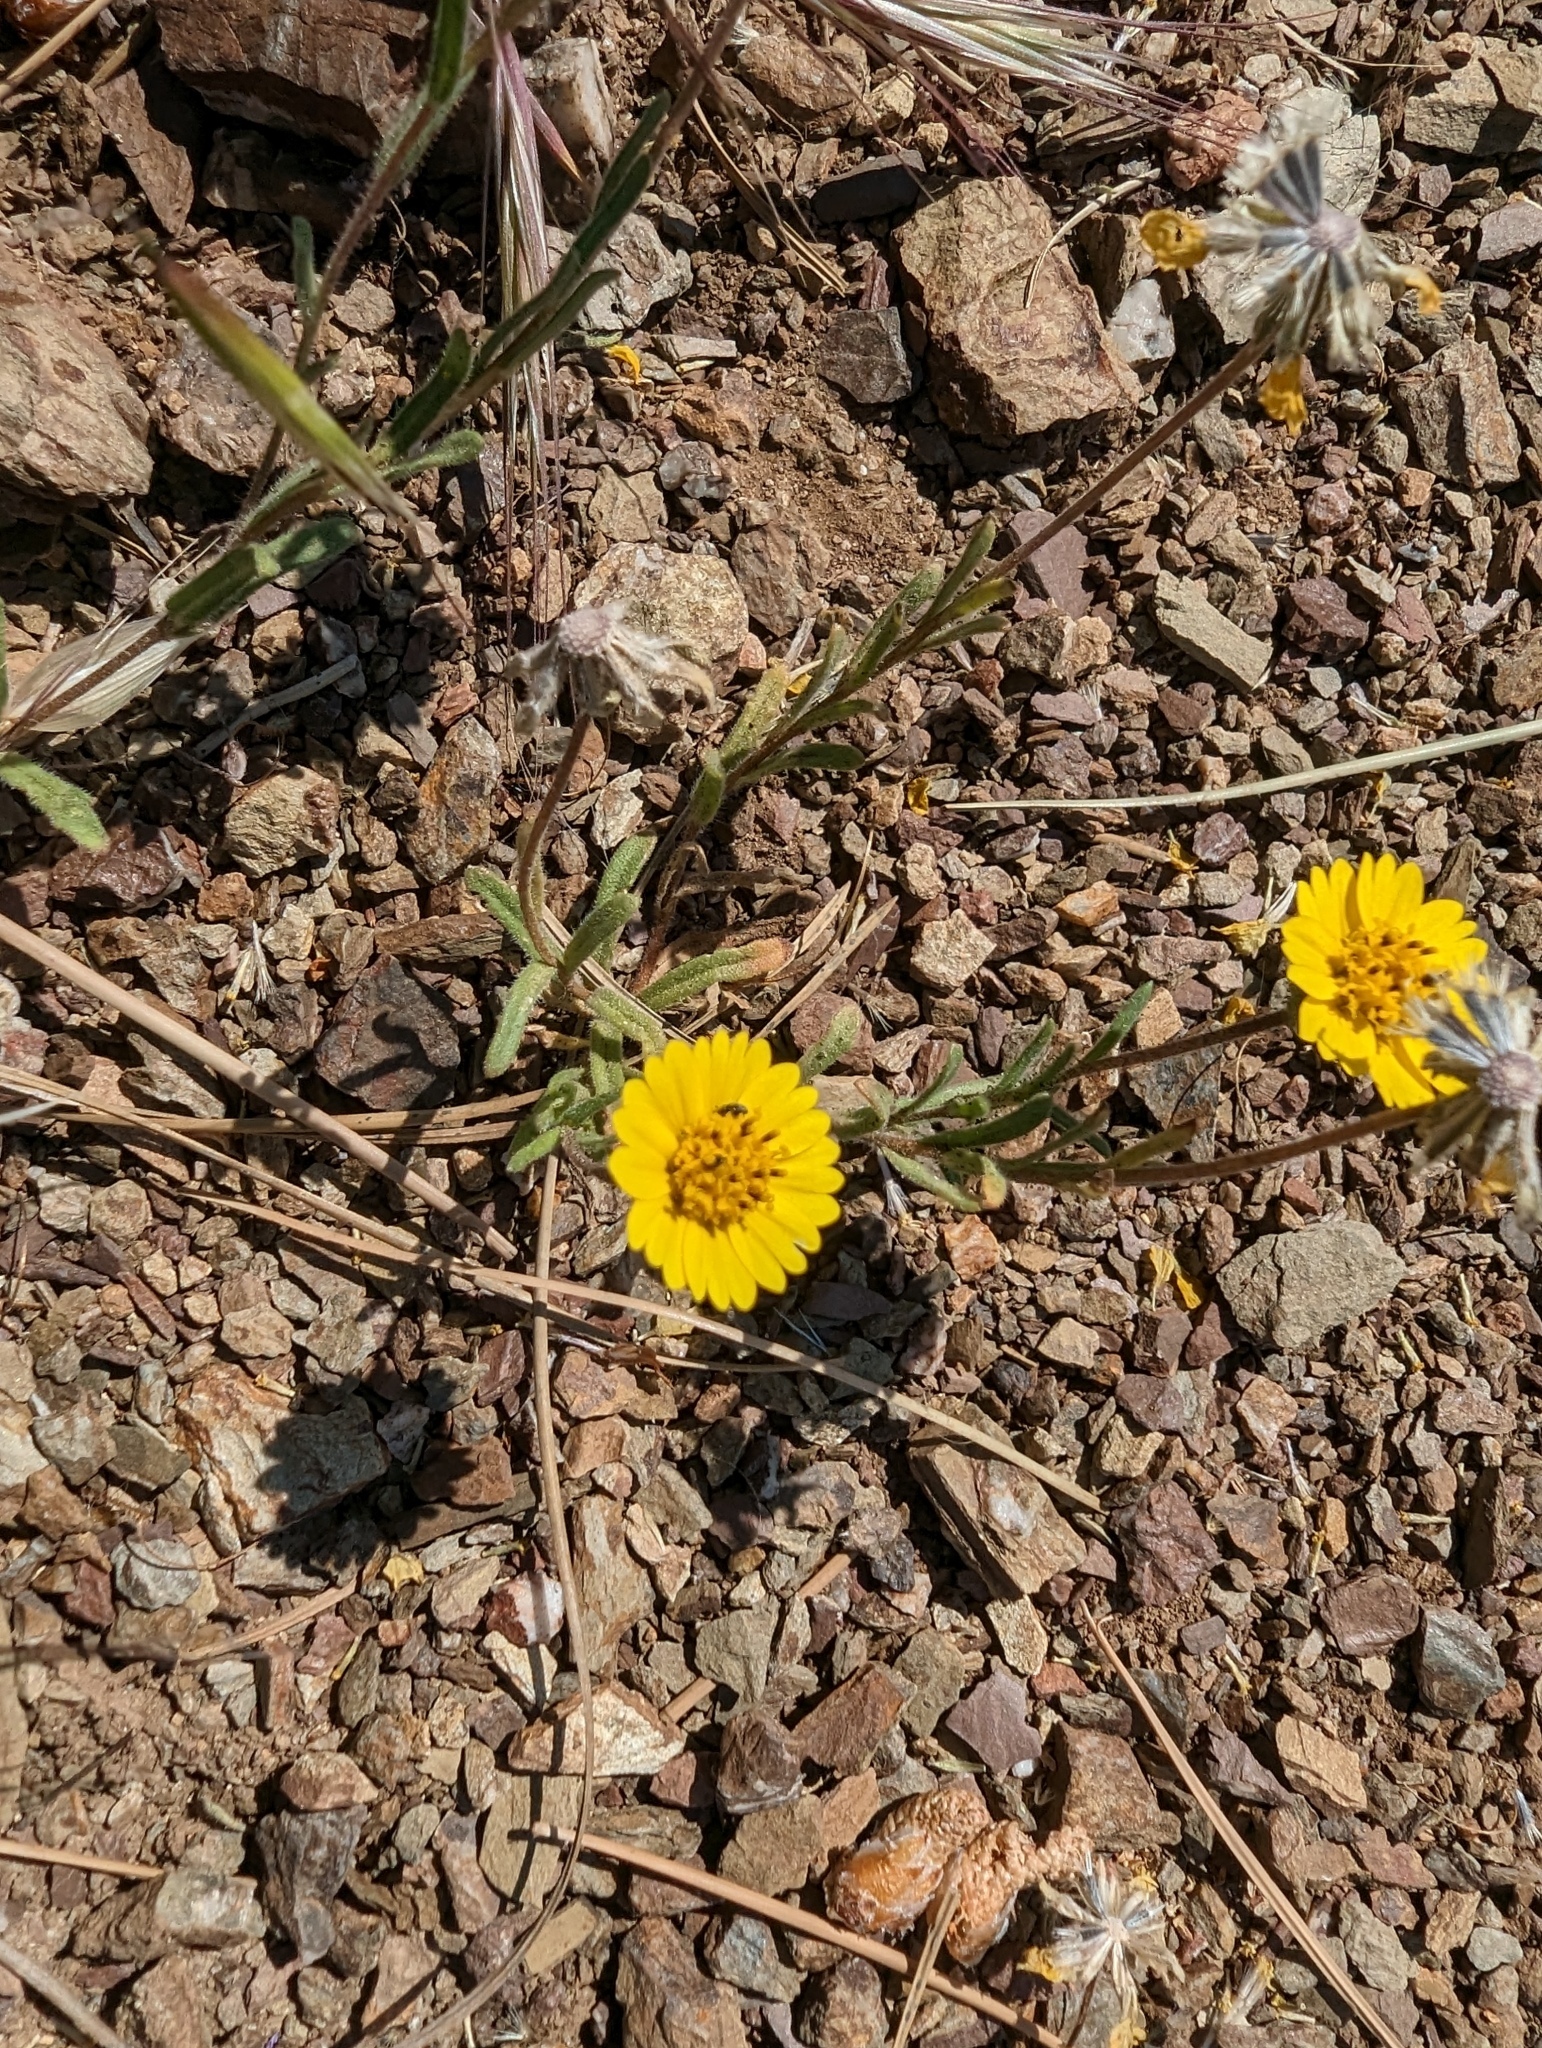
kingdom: Plantae
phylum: Tracheophyta
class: Magnoliopsida
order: Asterales
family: Asteraceae
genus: Layia
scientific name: Layia platyglossa
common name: Tidy-tips
